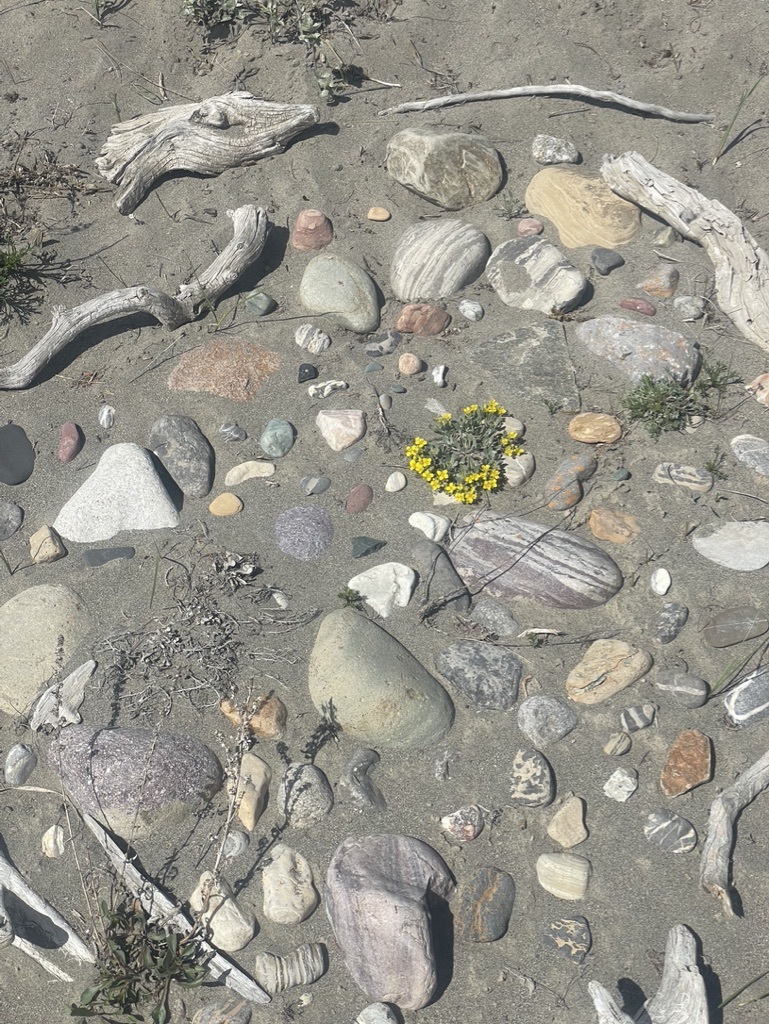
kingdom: Plantae
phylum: Tracheophyta
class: Magnoliopsida
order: Brassicales
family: Brassicaceae
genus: Physaria
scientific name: Physaria didymocarpa
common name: Common twinpod
